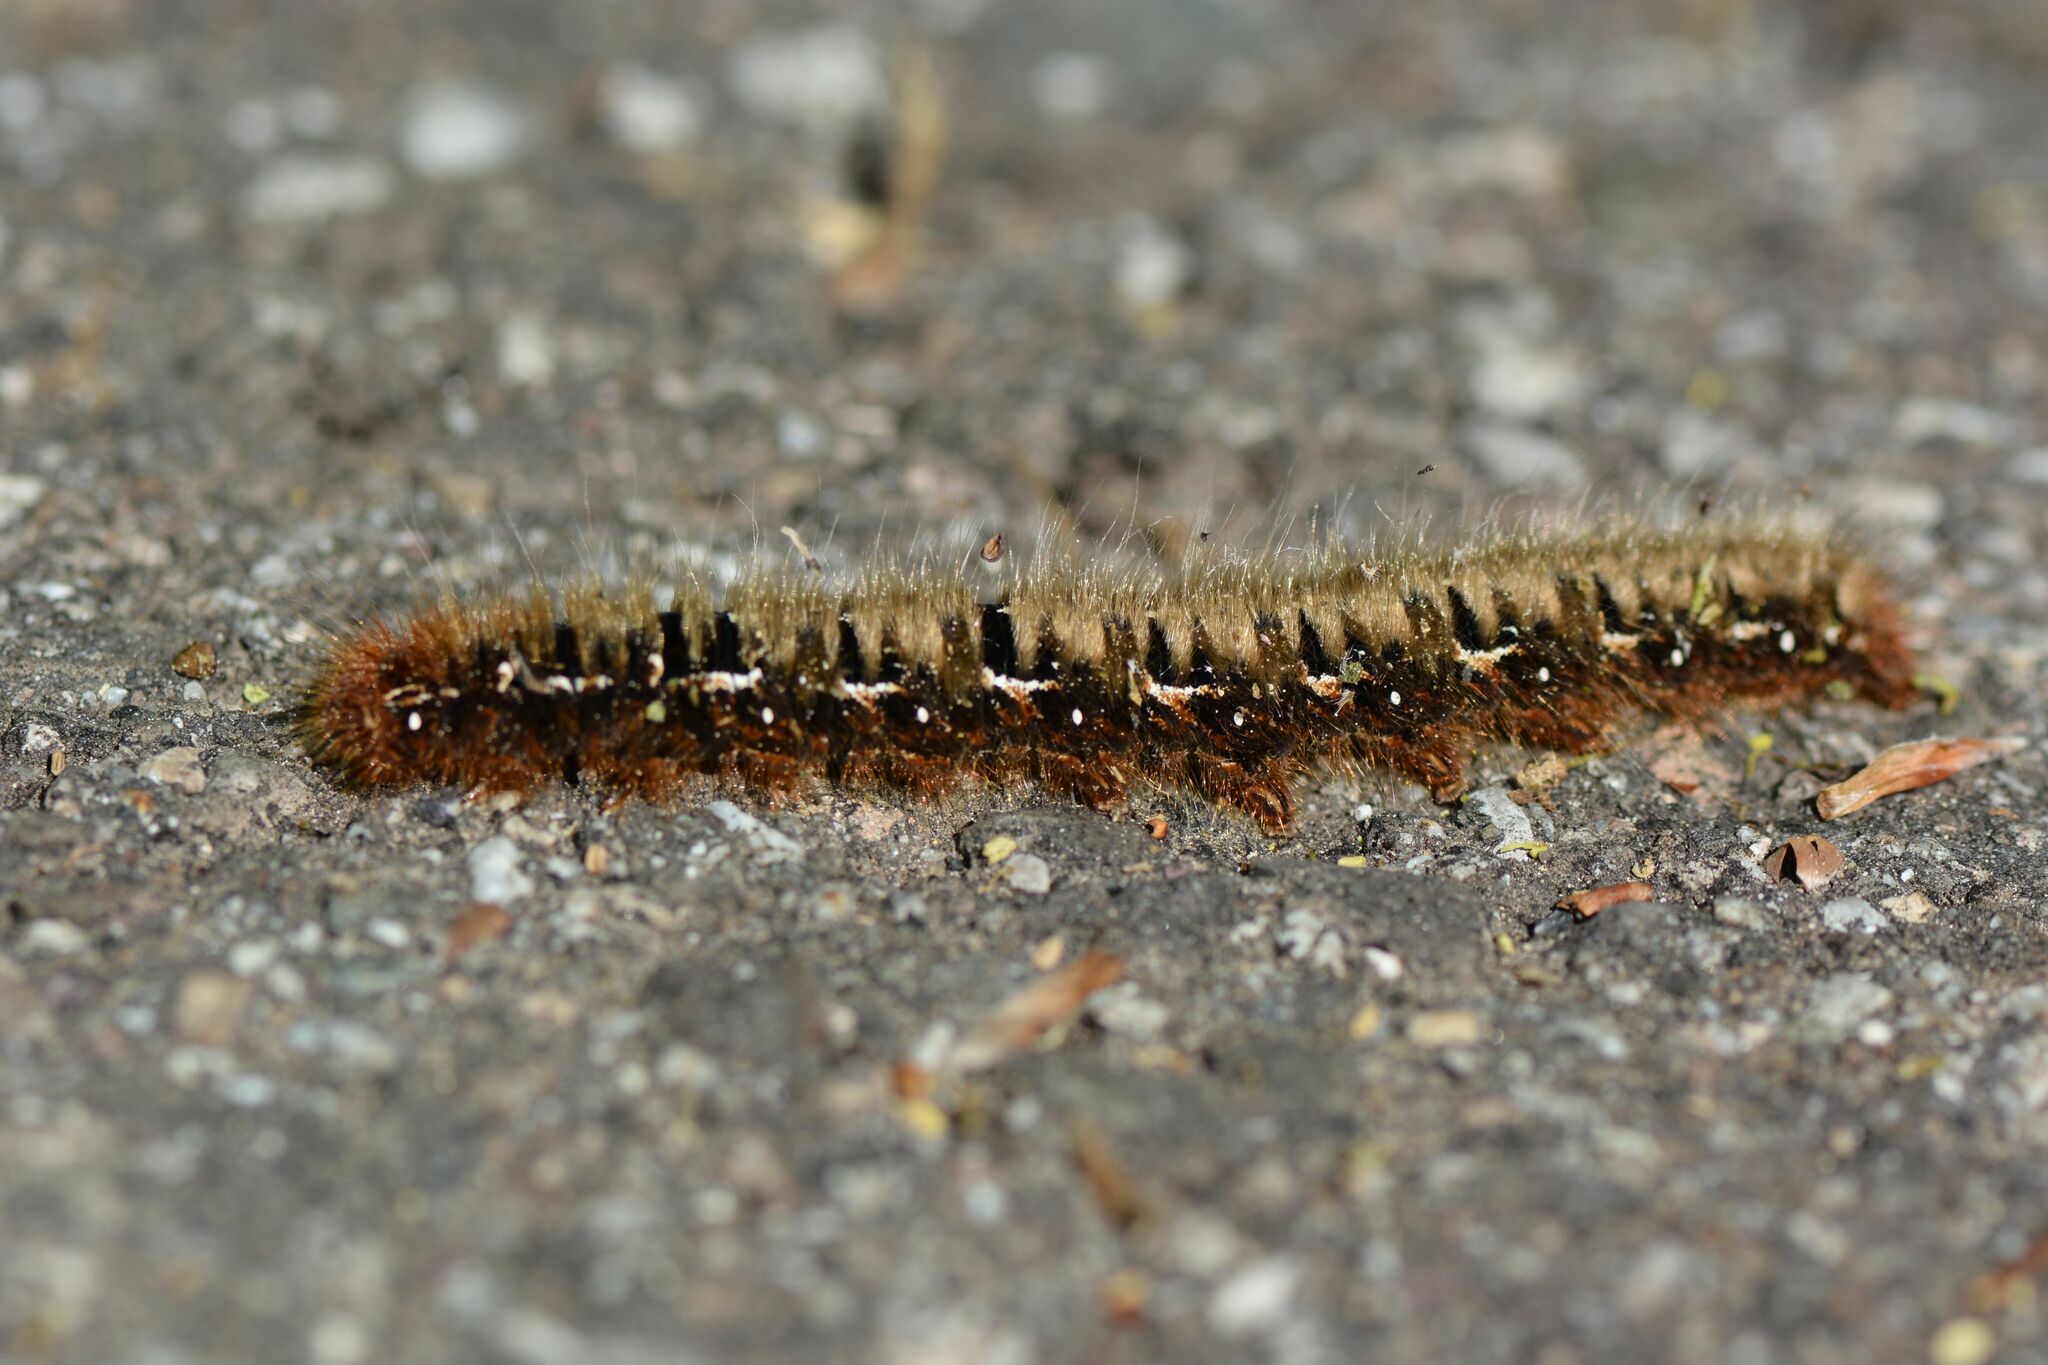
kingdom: Animalia
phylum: Arthropoda
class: Insecta
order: Lepidoptera
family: Lasiocampidae
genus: Lasiocampa
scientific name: Lasiocampa quercus
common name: Oak eggar
